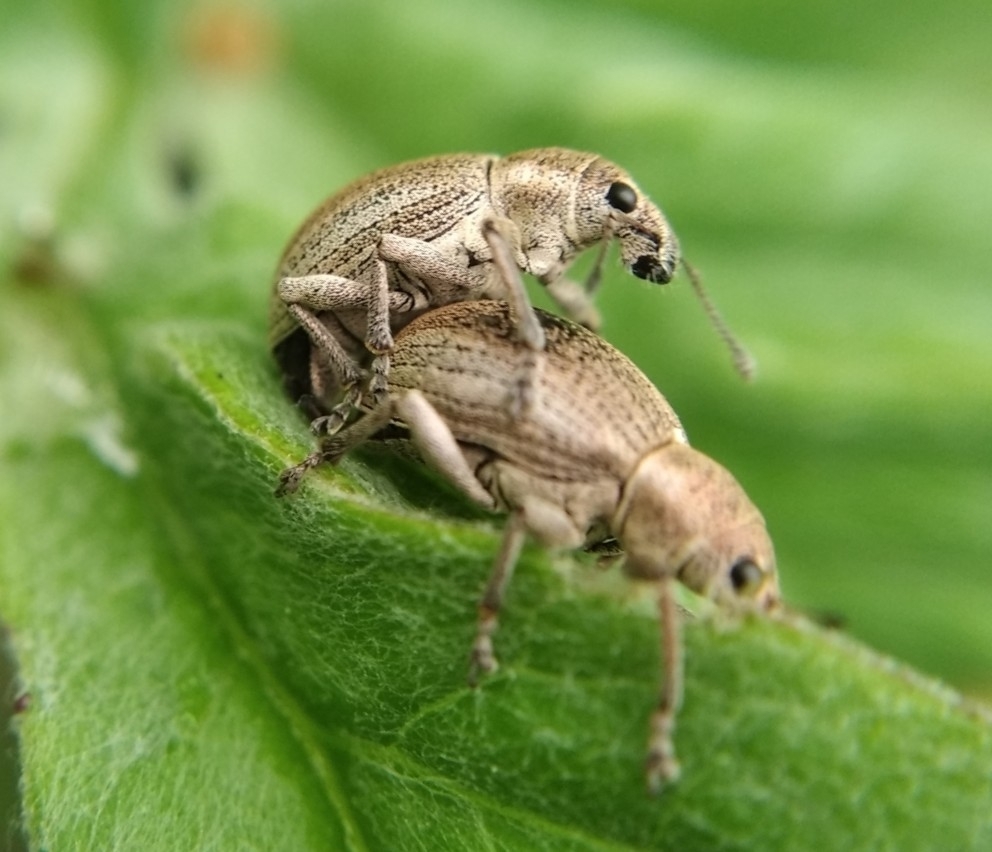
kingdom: Animalia
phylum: Arthropoda
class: Insecta
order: Coleoptera
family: Curculionidae
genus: Sciaphobus
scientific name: Sciaphobus squalidus
